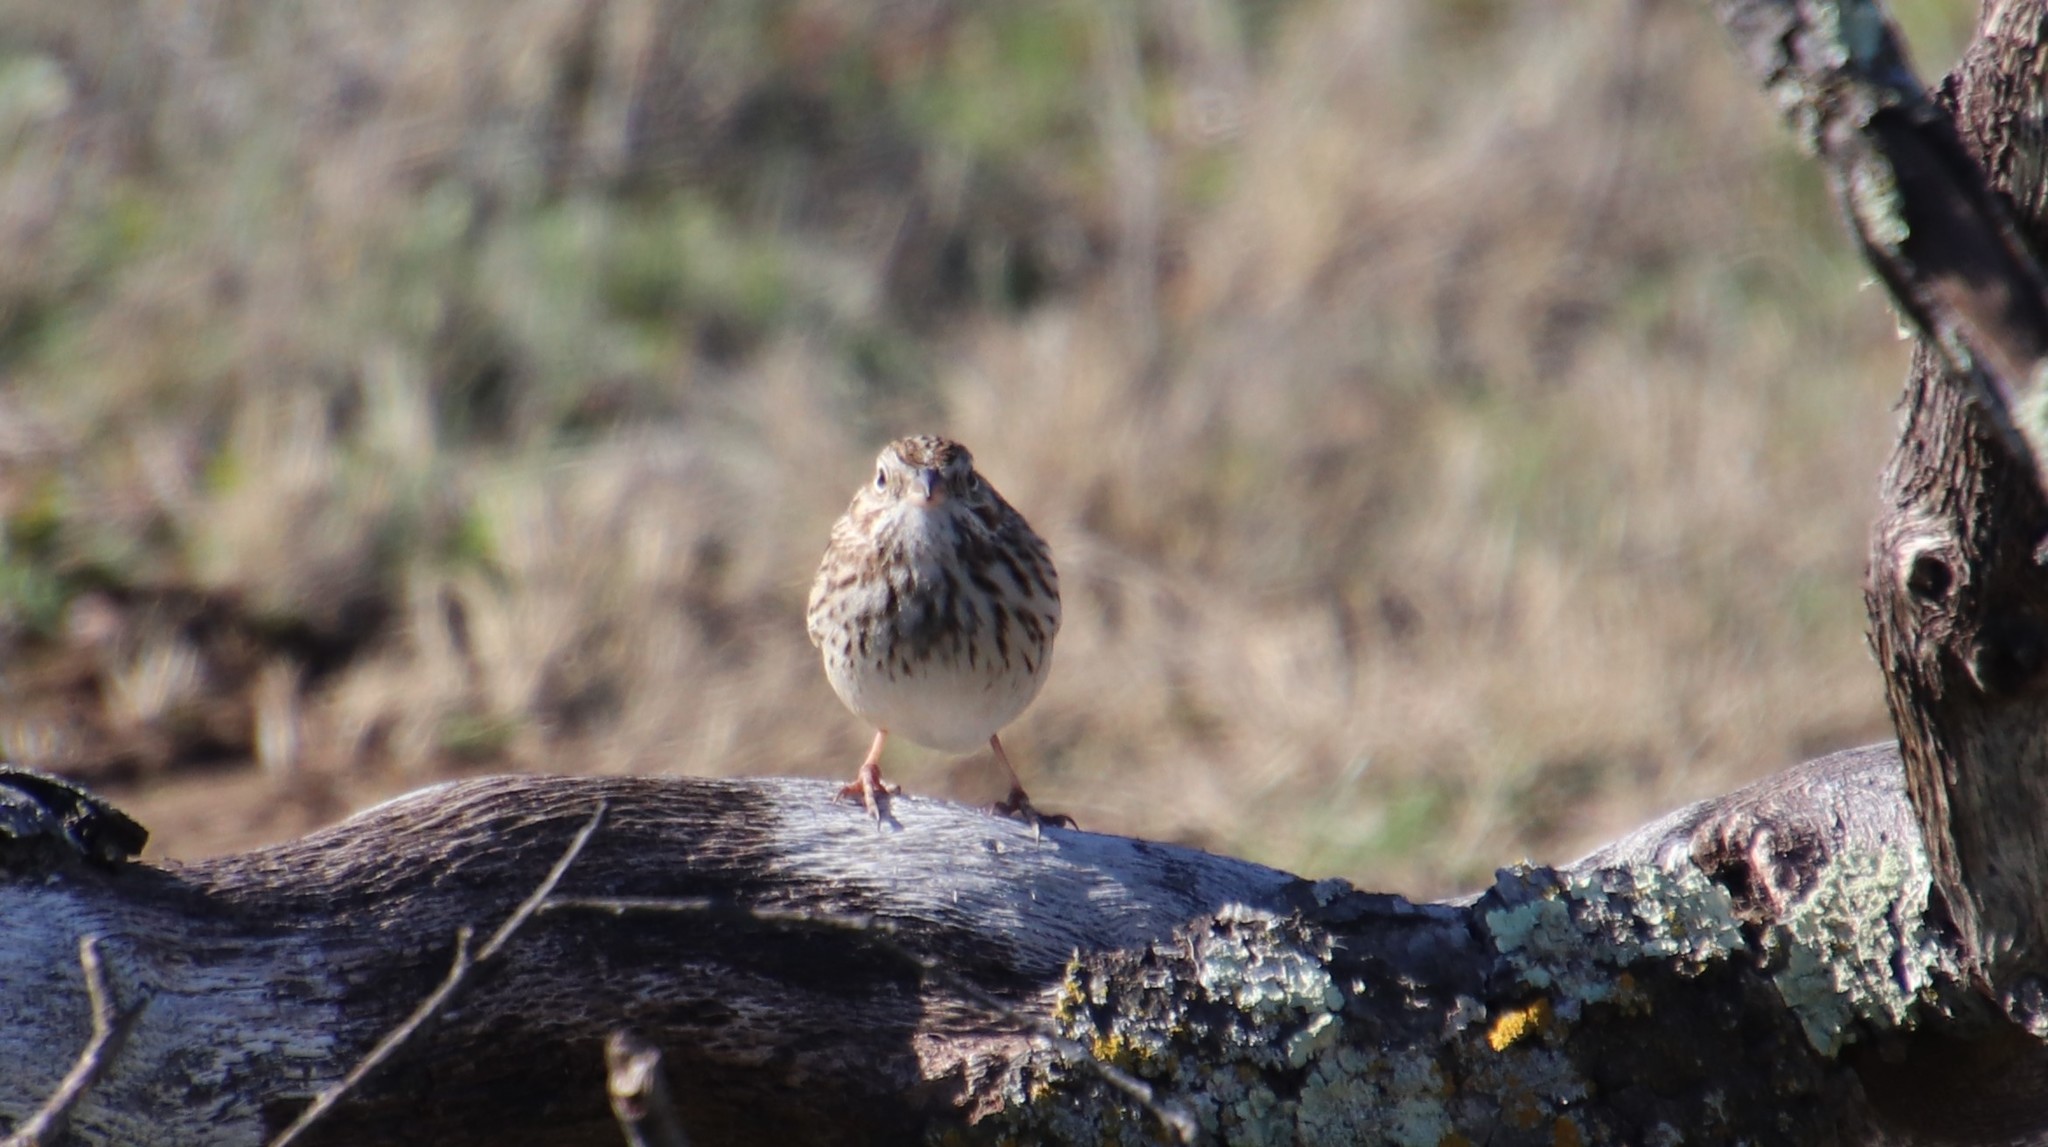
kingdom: Animalia
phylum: Chordata
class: Aves
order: Passeriformes
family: Passerellidae
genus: Pooecetes
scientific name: Pooecetes gramineus
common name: Vesper sparrow
